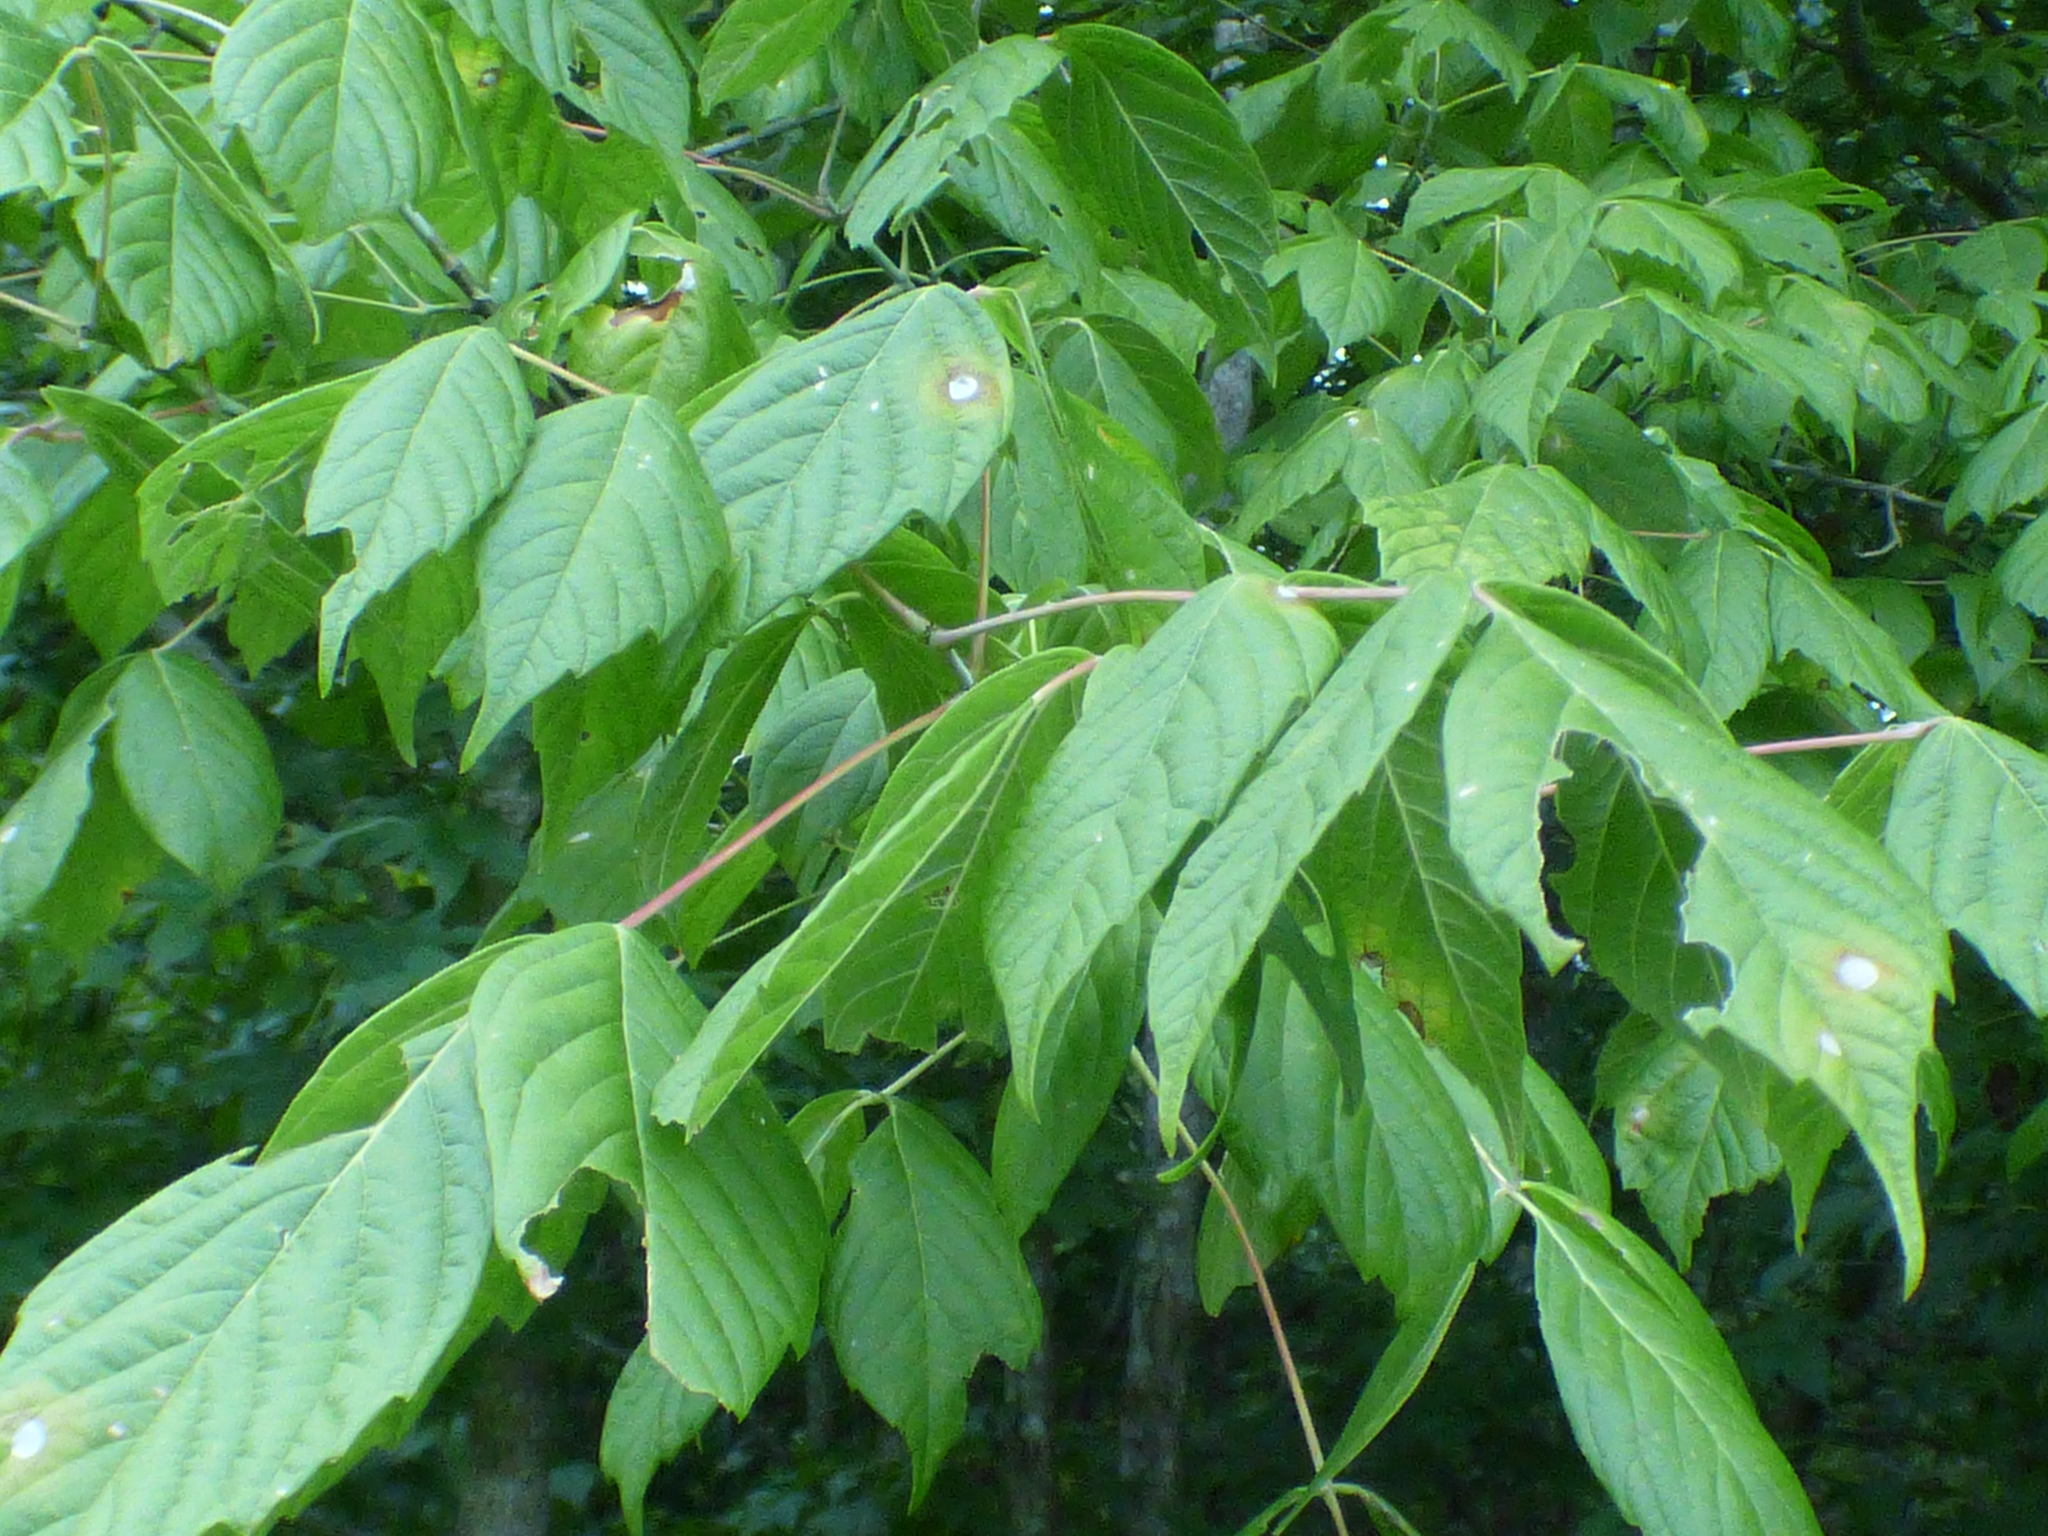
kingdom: Plantae
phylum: Tracheophyta
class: Magnoliopsida
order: Sapindales
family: Sapindaceae
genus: Acer
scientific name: Acer negundo
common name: Ashleaf maple
